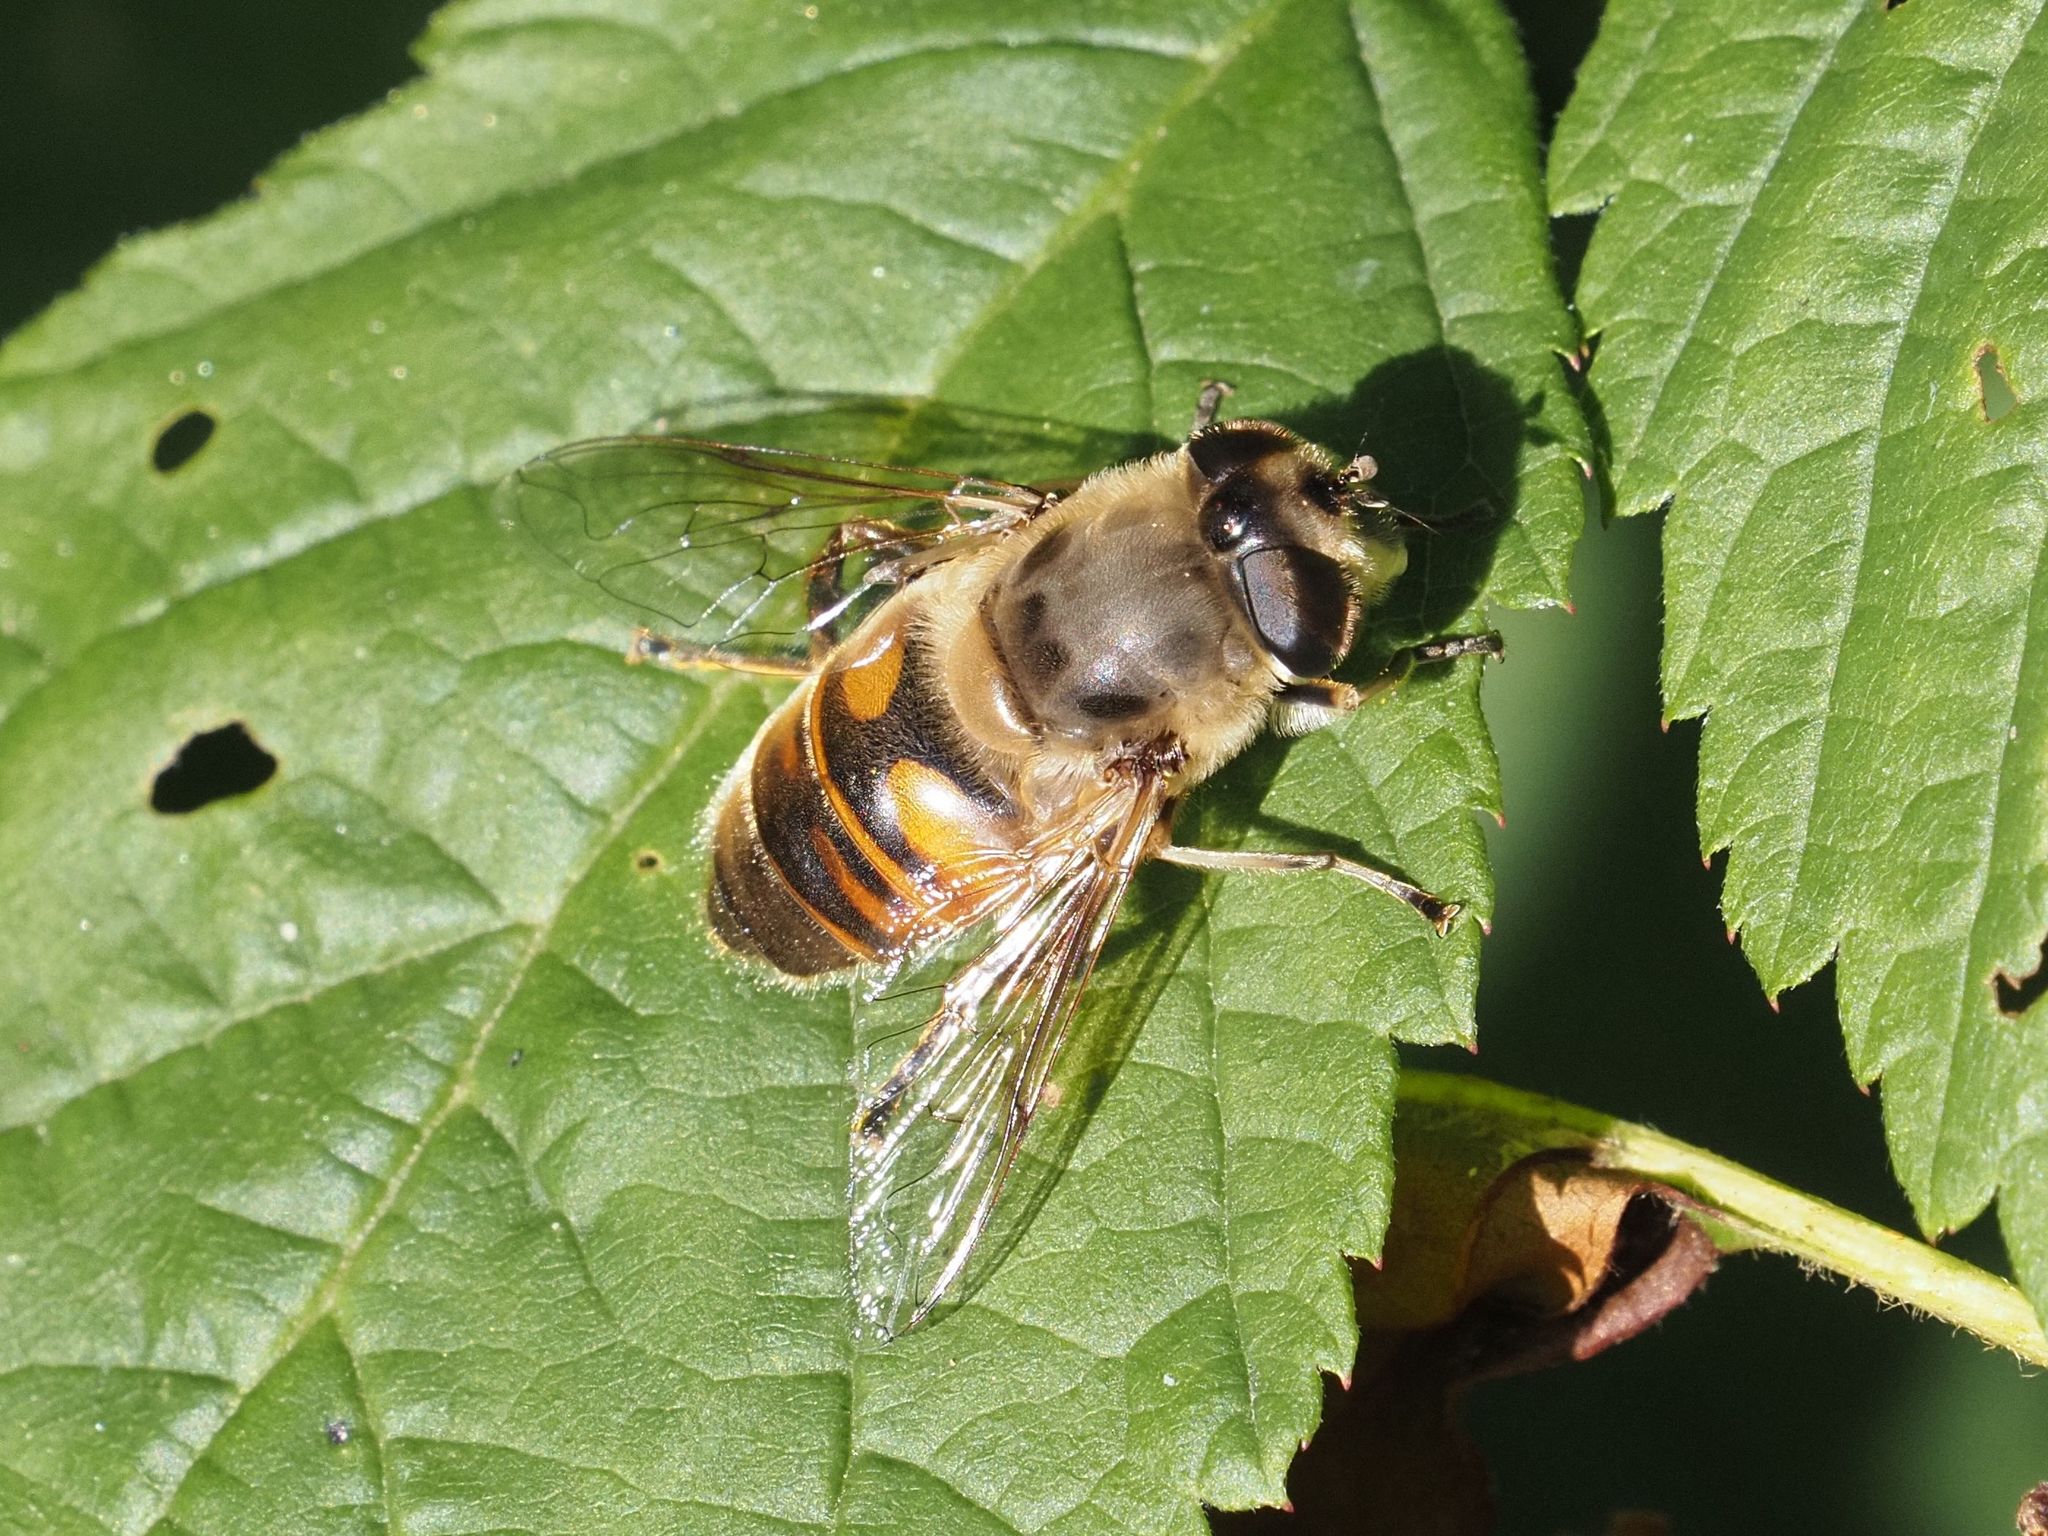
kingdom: Animalia
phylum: Arthropoda
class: Insecta
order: Diptera
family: Syrphidae
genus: Eristalis
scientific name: Eristalis tenax
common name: Drone fly
